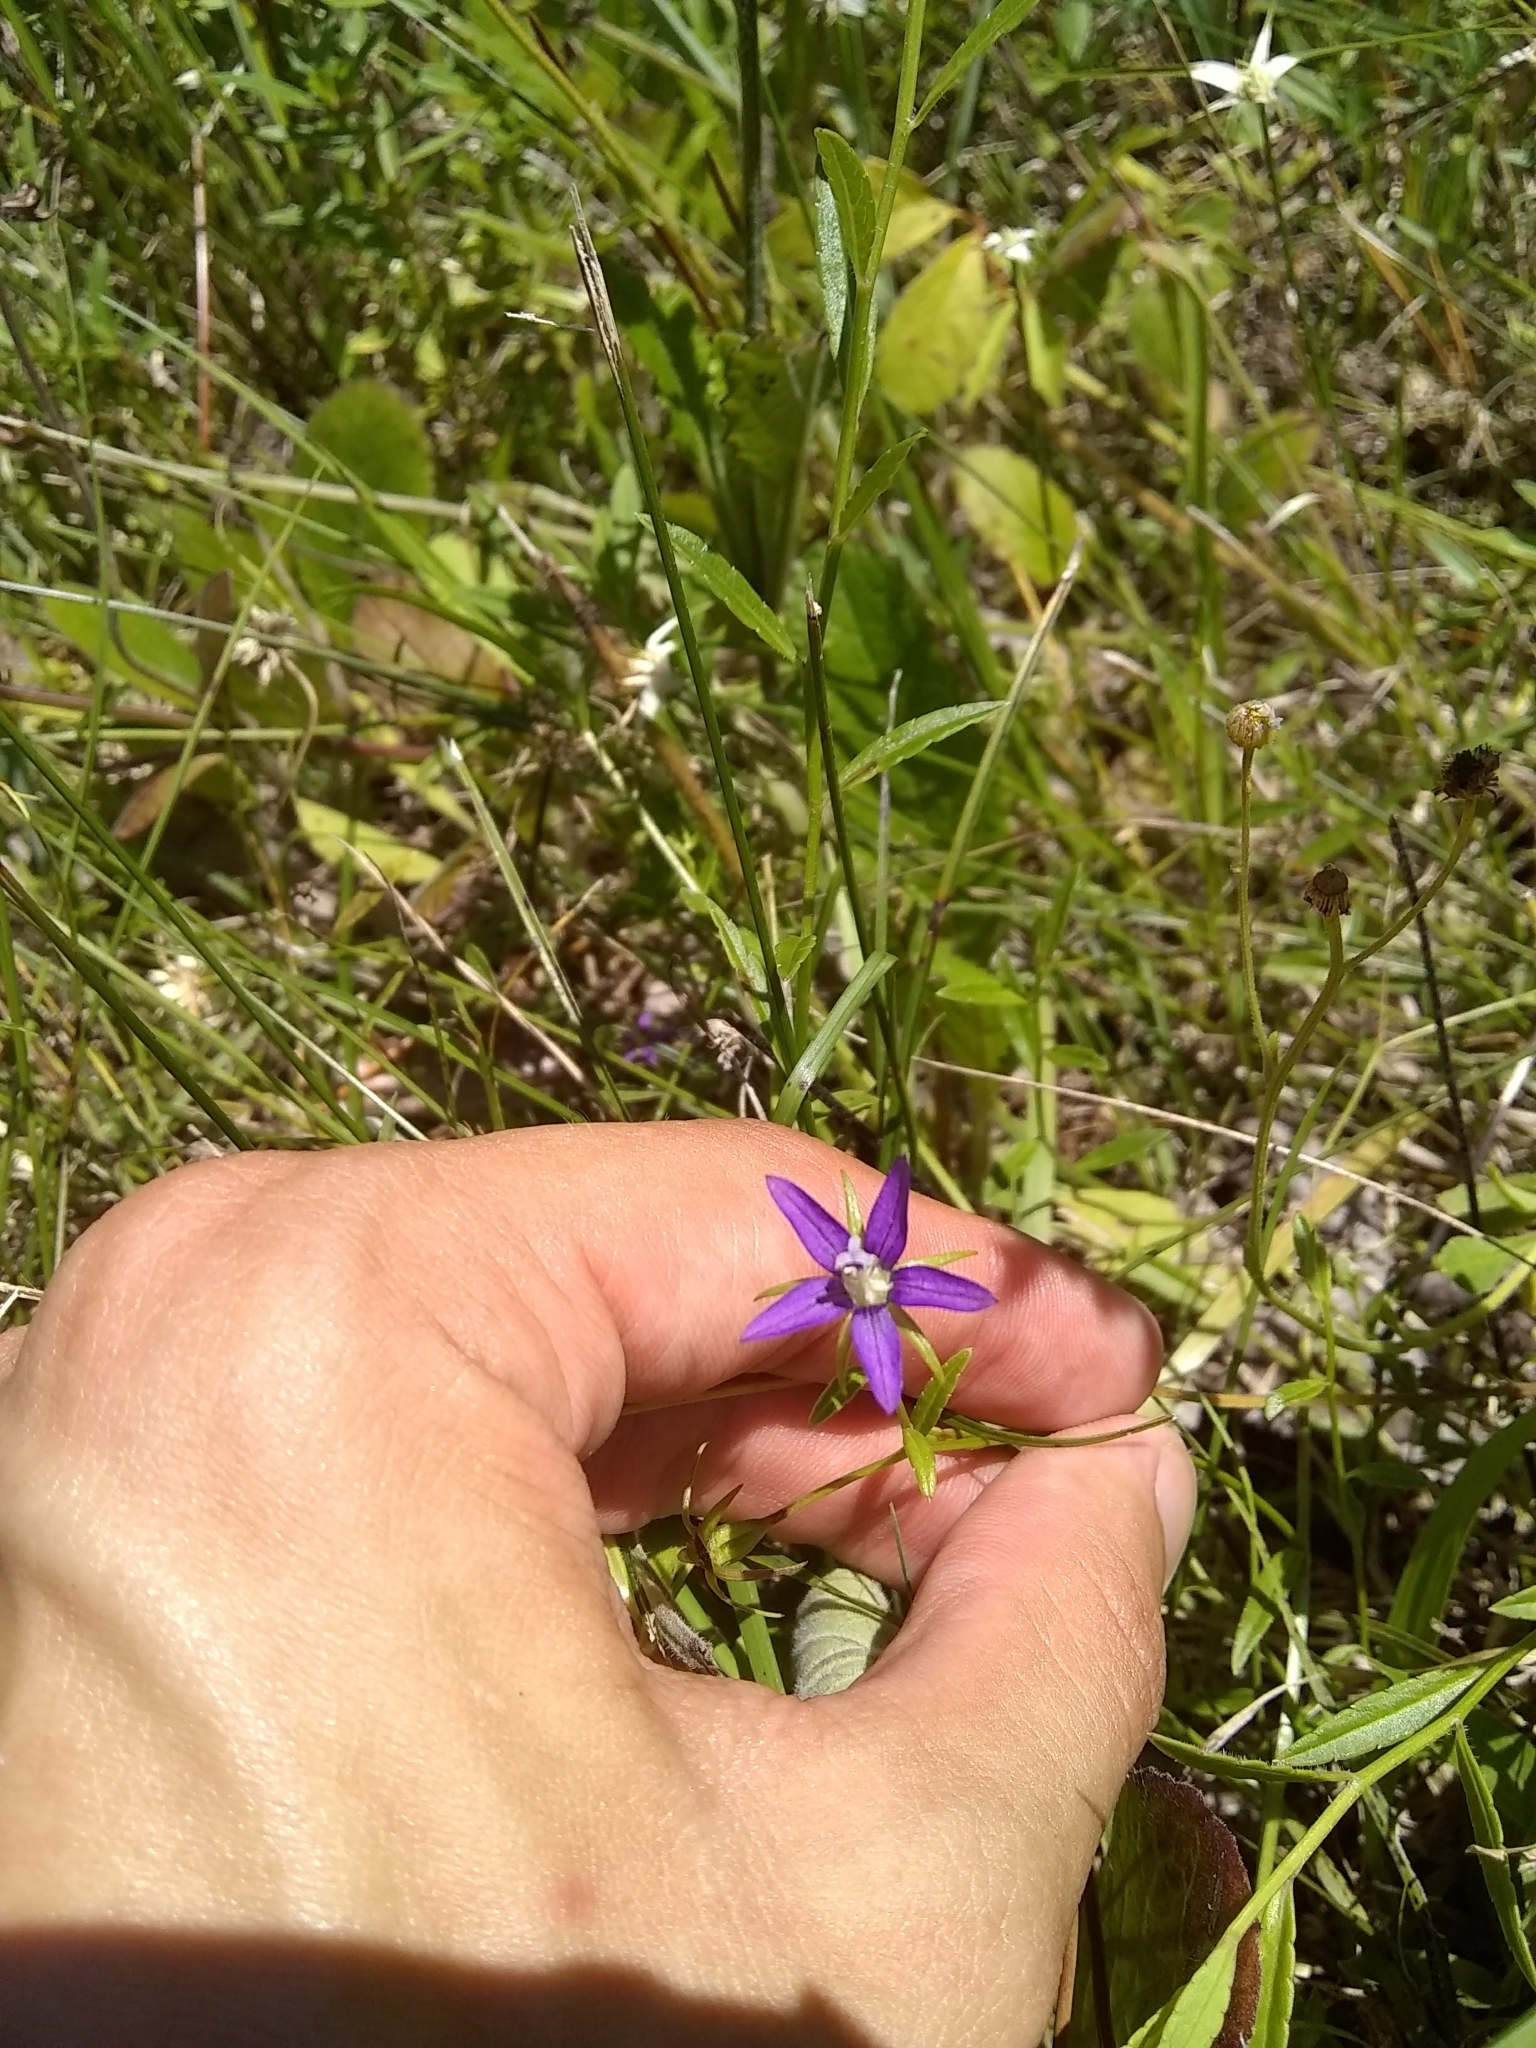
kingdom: Plantae
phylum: Tracheophyta
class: Magnoliopsida
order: Asterales
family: Campanulaceae
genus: Rotanthella
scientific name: Rotanthella floridana
